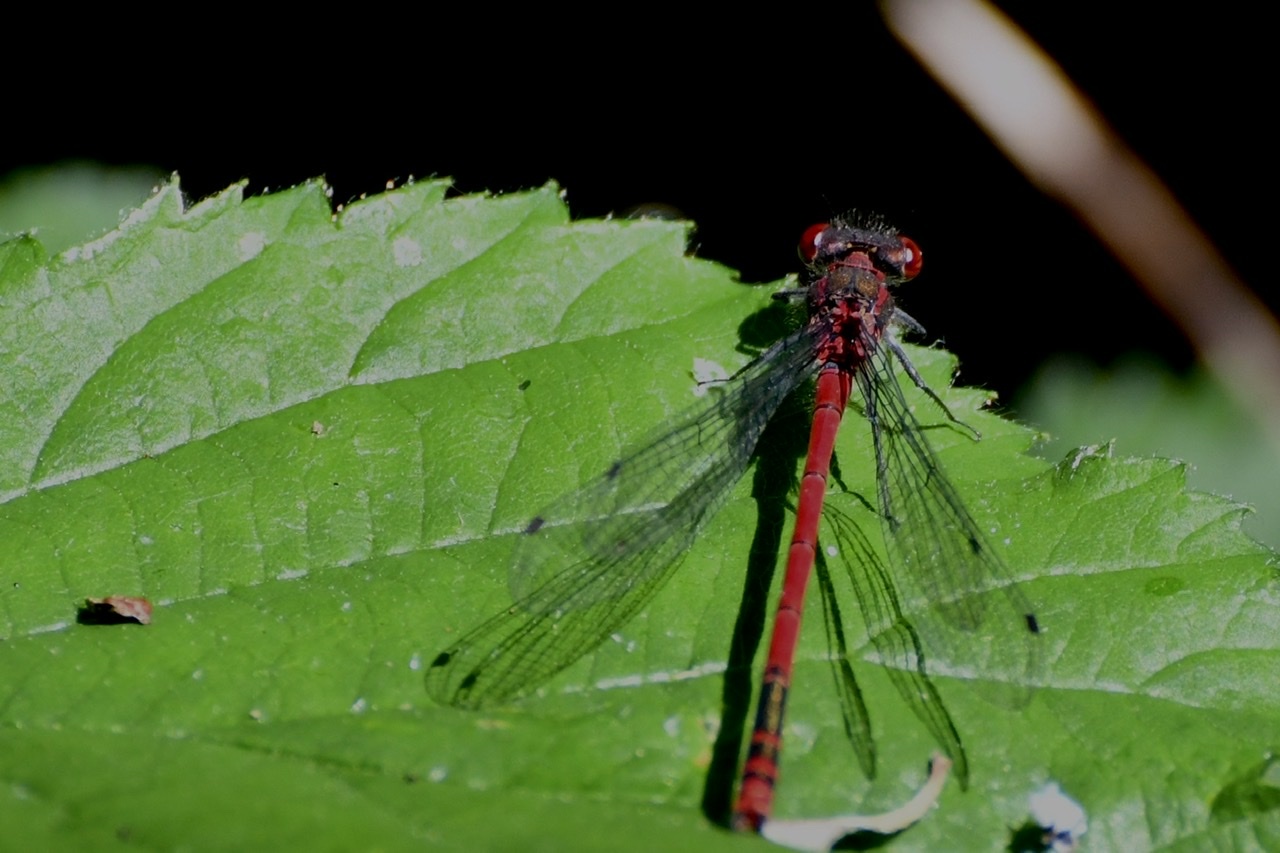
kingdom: Animalia
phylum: Arthropoda
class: Insecta
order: Odonata
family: Coenagrionidae
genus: Pyrrhosoma
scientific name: Pyrrhosoma nymphula
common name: Large red damsel
